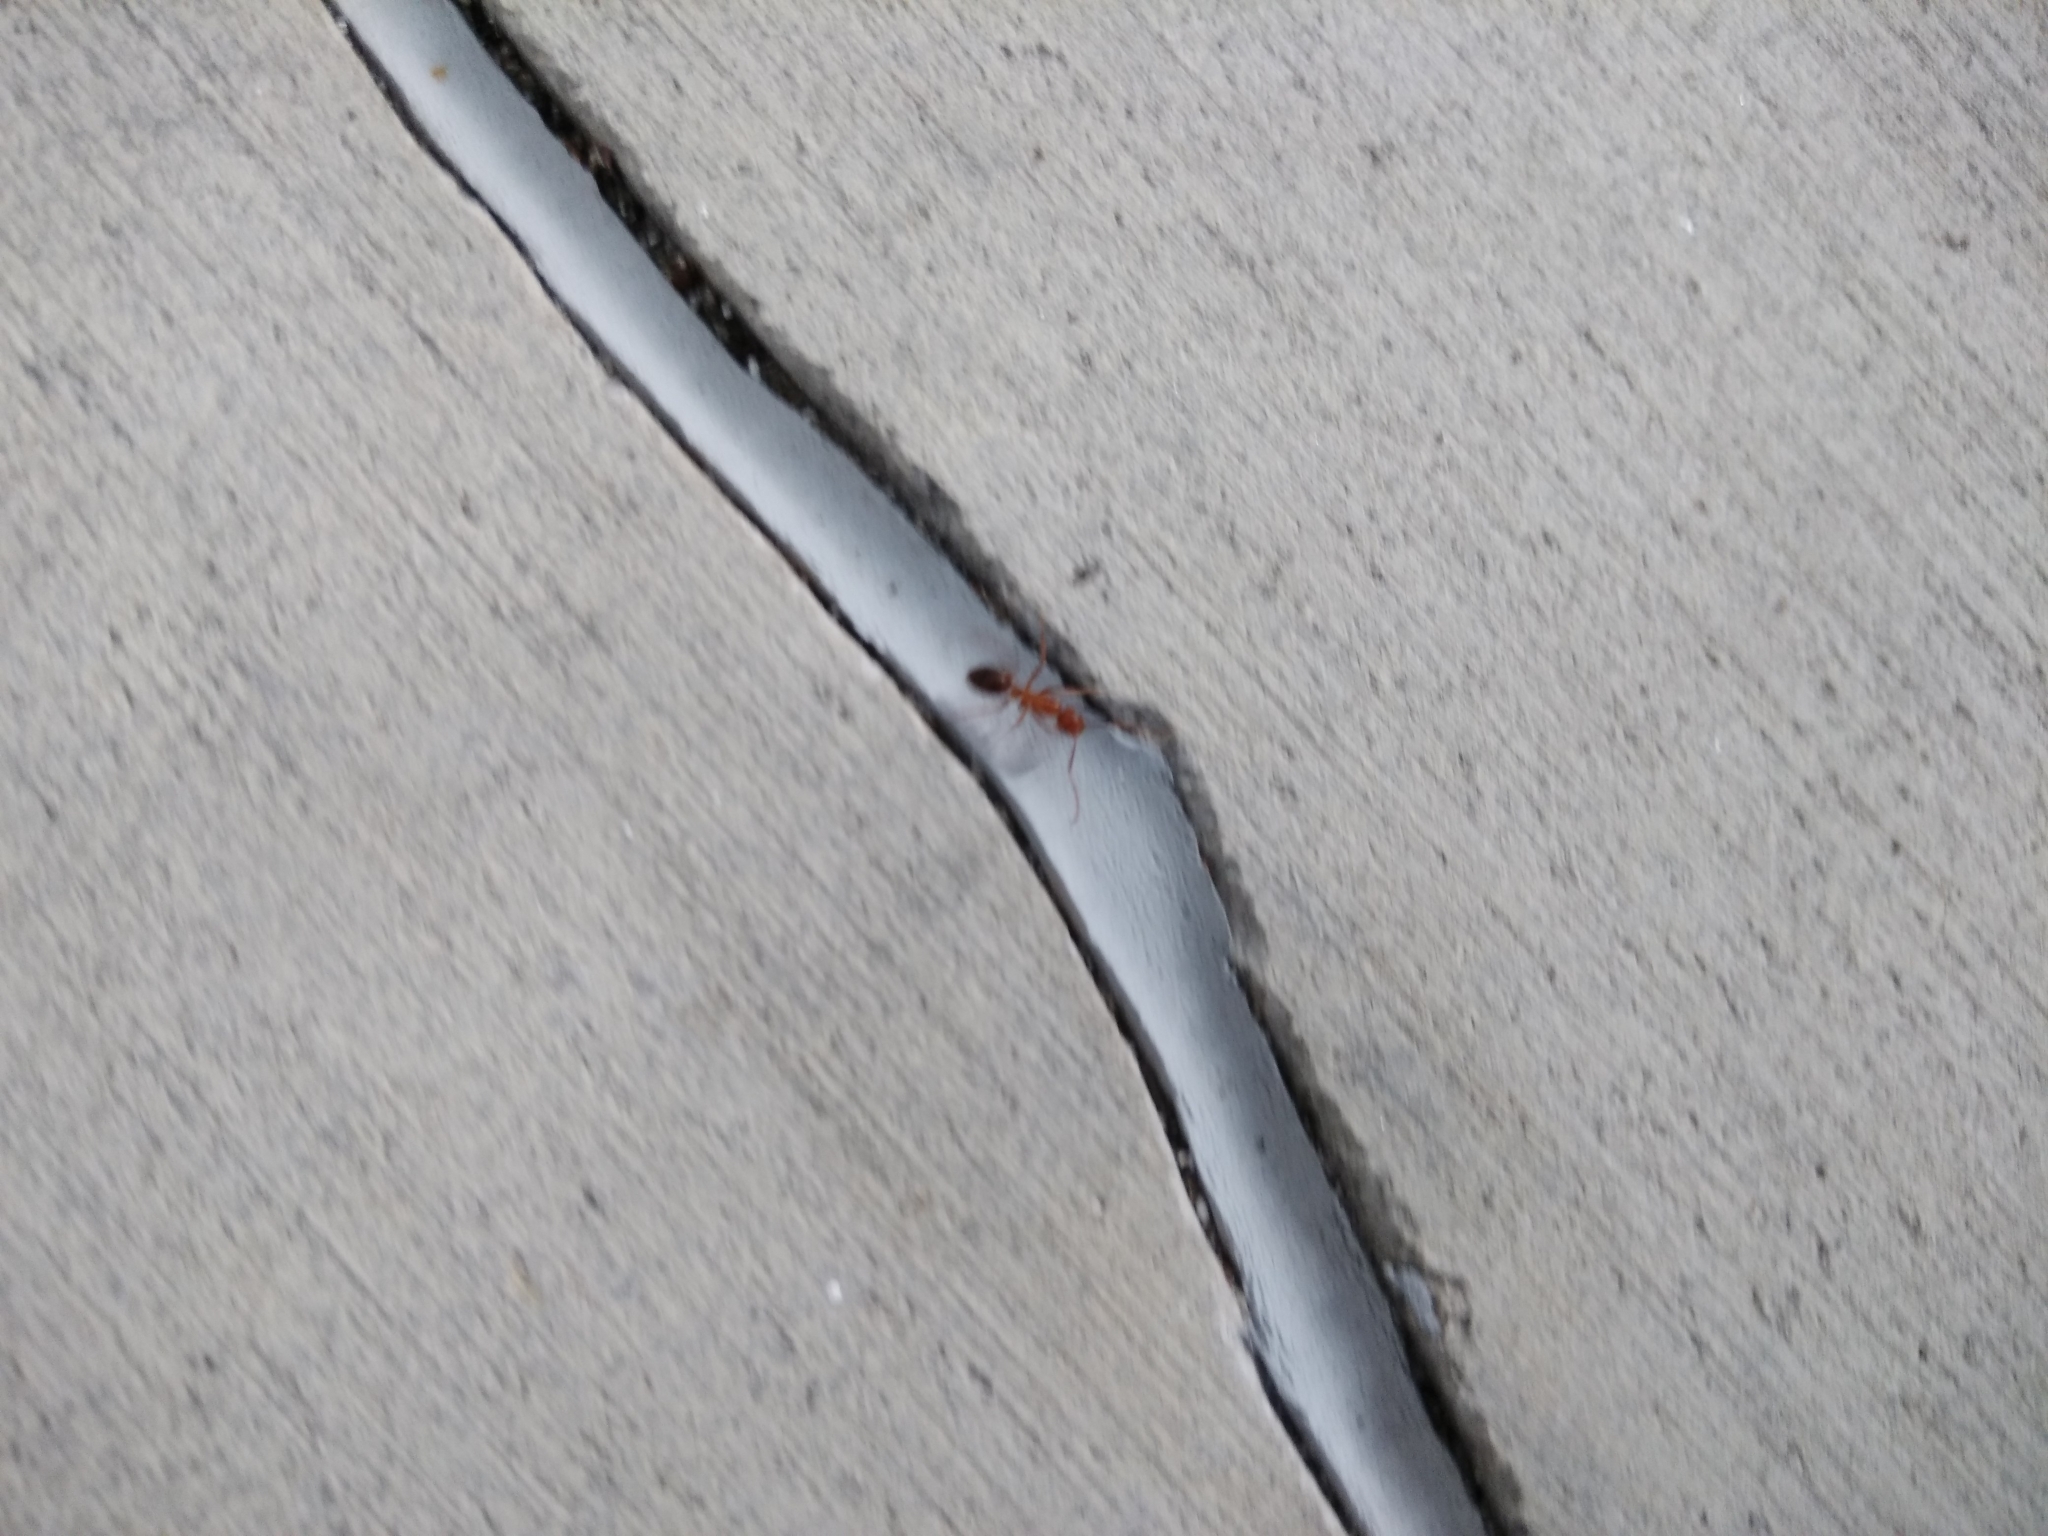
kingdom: Animalia
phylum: Arthropoda
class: Insecta
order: Hymenoptera
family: Formicidae
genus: Camponotus
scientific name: Camponotus floridanus
